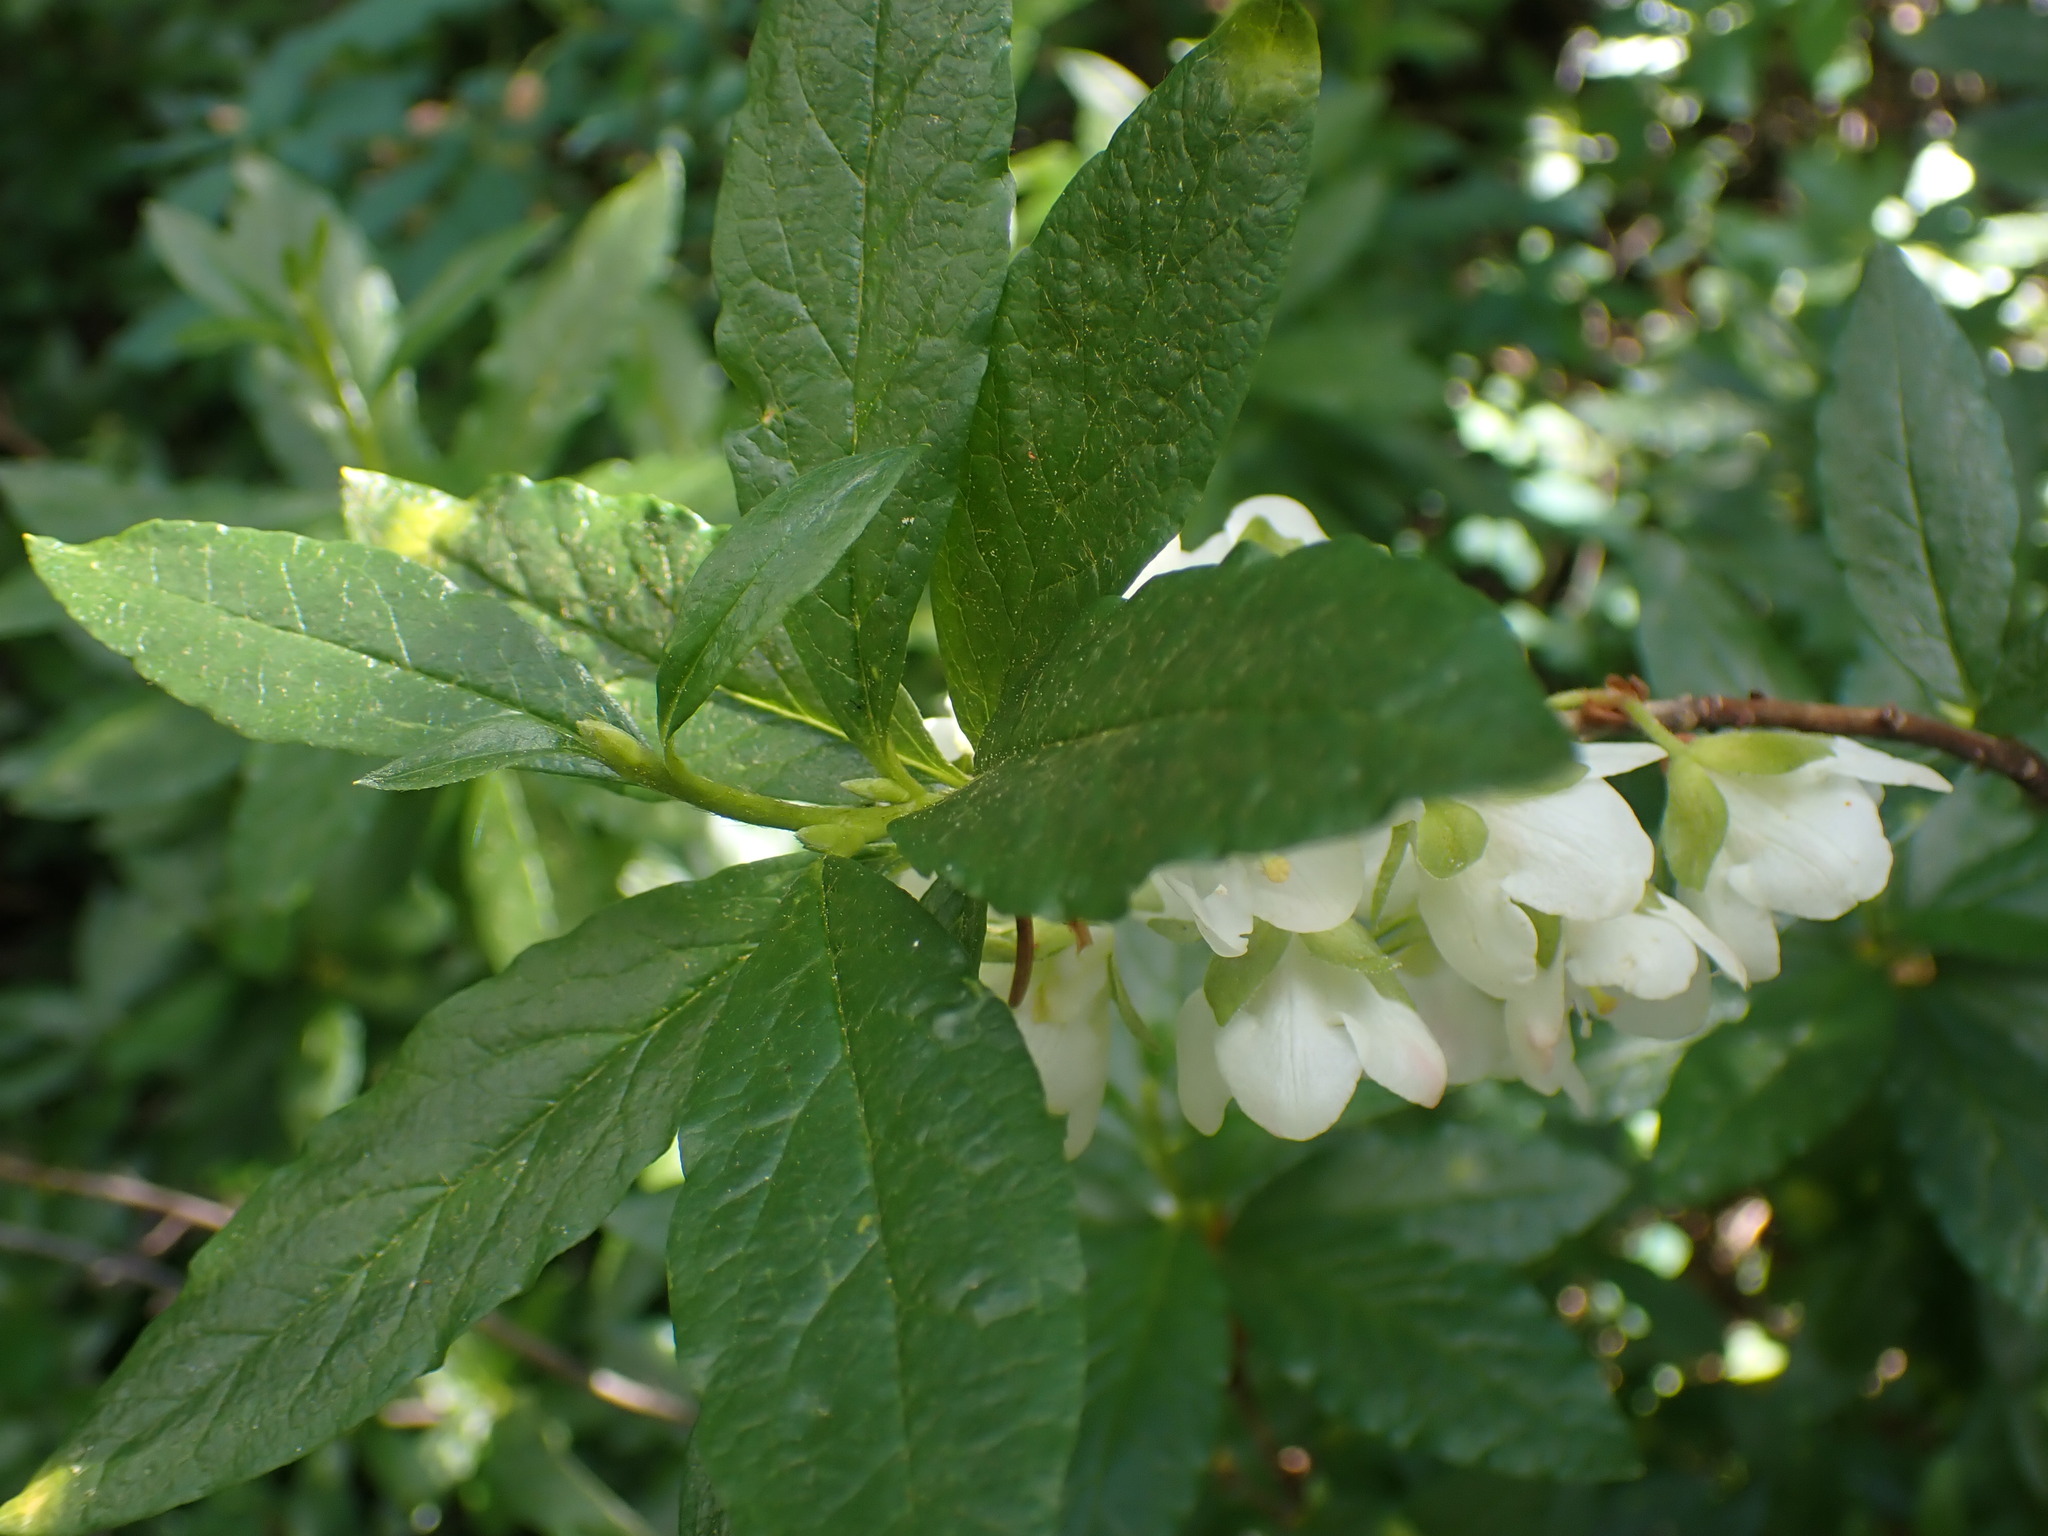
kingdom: Plantae
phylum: Tracheophyta
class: Magnoliopsida
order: Ericales
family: Ericaceae
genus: Rhododendron
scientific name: Rhododendron albiflorum
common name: White rhododendron
